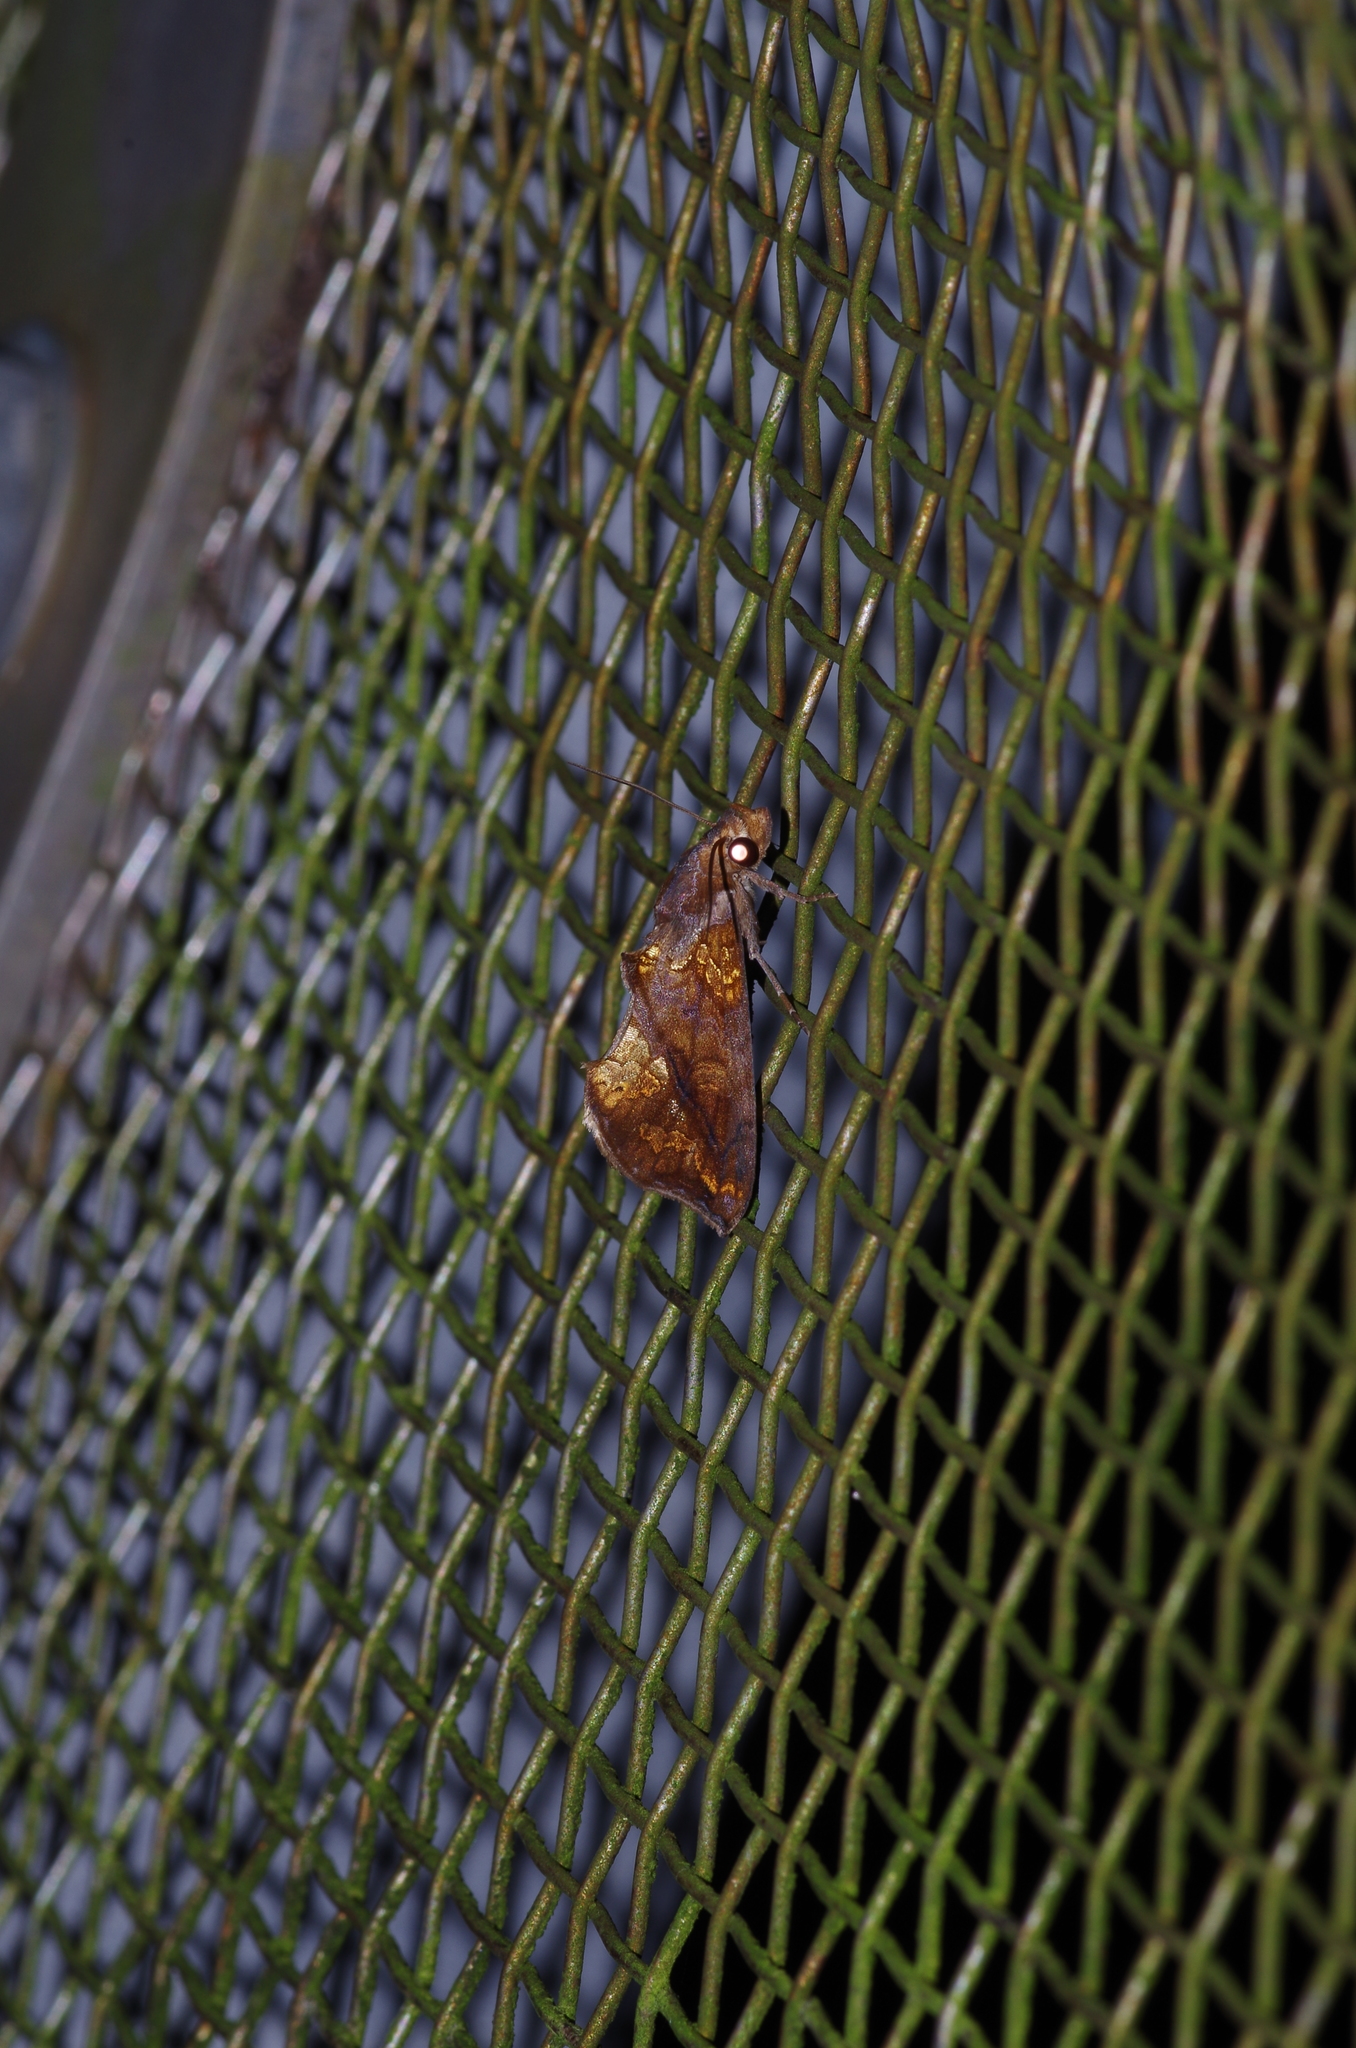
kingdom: Animalia
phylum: Arthropoda
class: Insecta
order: Lepidoptera
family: Erebidae
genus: Plusiodonta
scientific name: Plusiodonta coelonota
